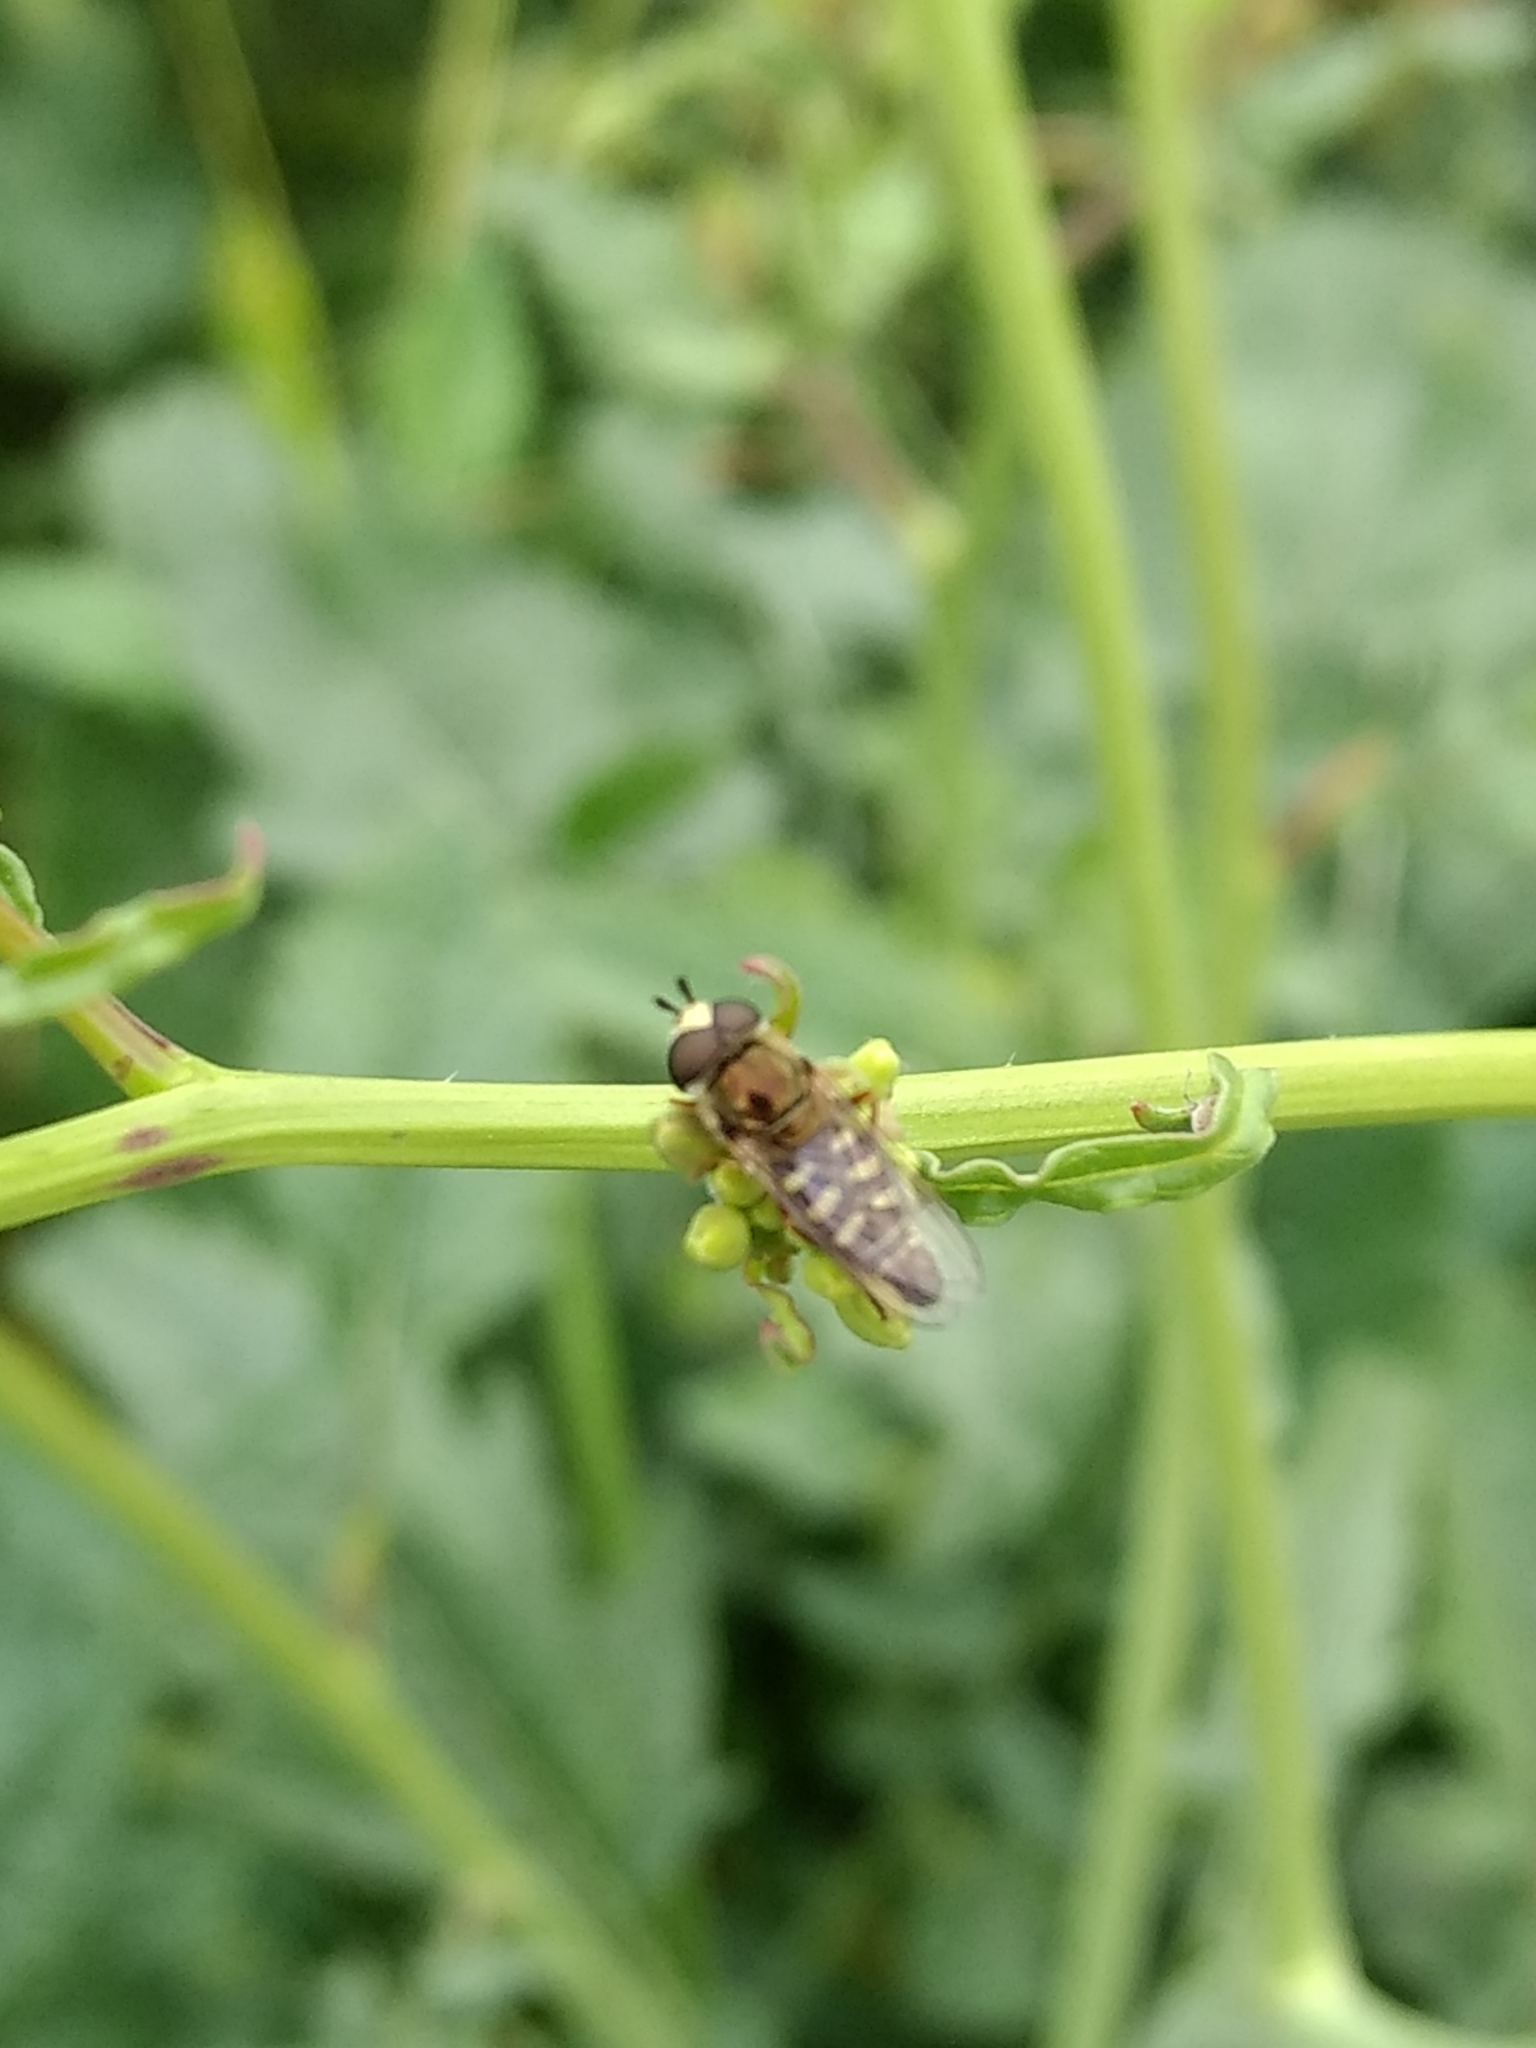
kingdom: Animalia
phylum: Arthropoda
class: Insecta
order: Diptera
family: Syrphidae
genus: Eupeodes
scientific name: Eupeodes volucris
